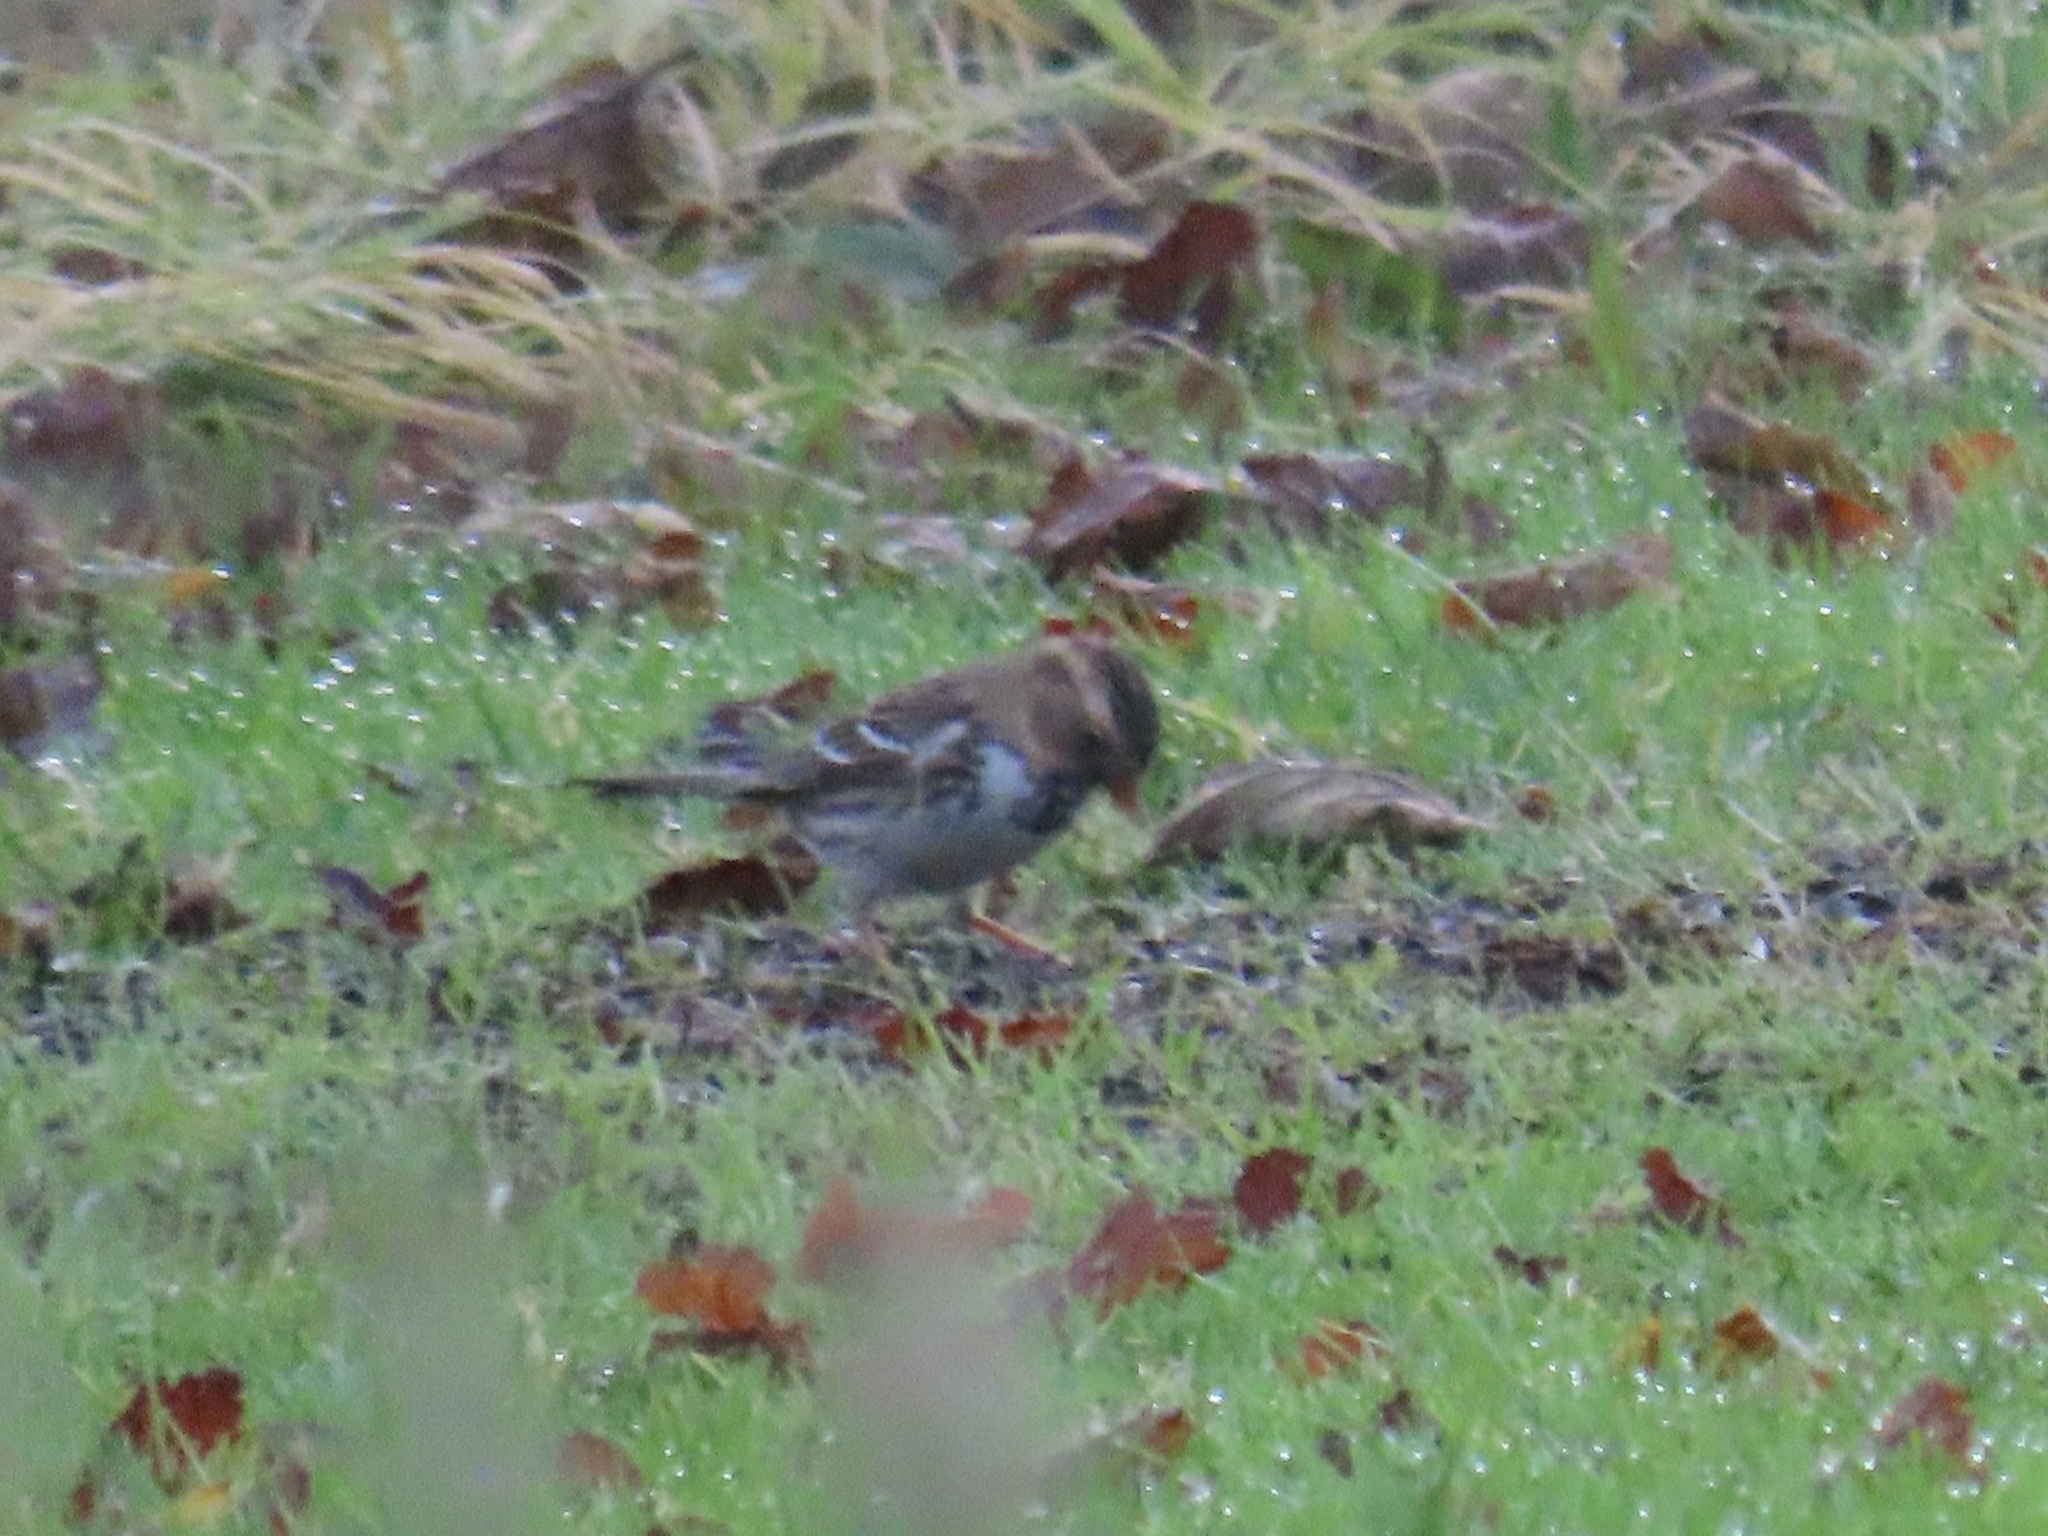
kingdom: Animalia
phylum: Chordata
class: Aves
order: Passeriformes
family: Passerellidae
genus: Zonotrichia
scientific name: Zonotrichia querula
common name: Harris's sparrow
